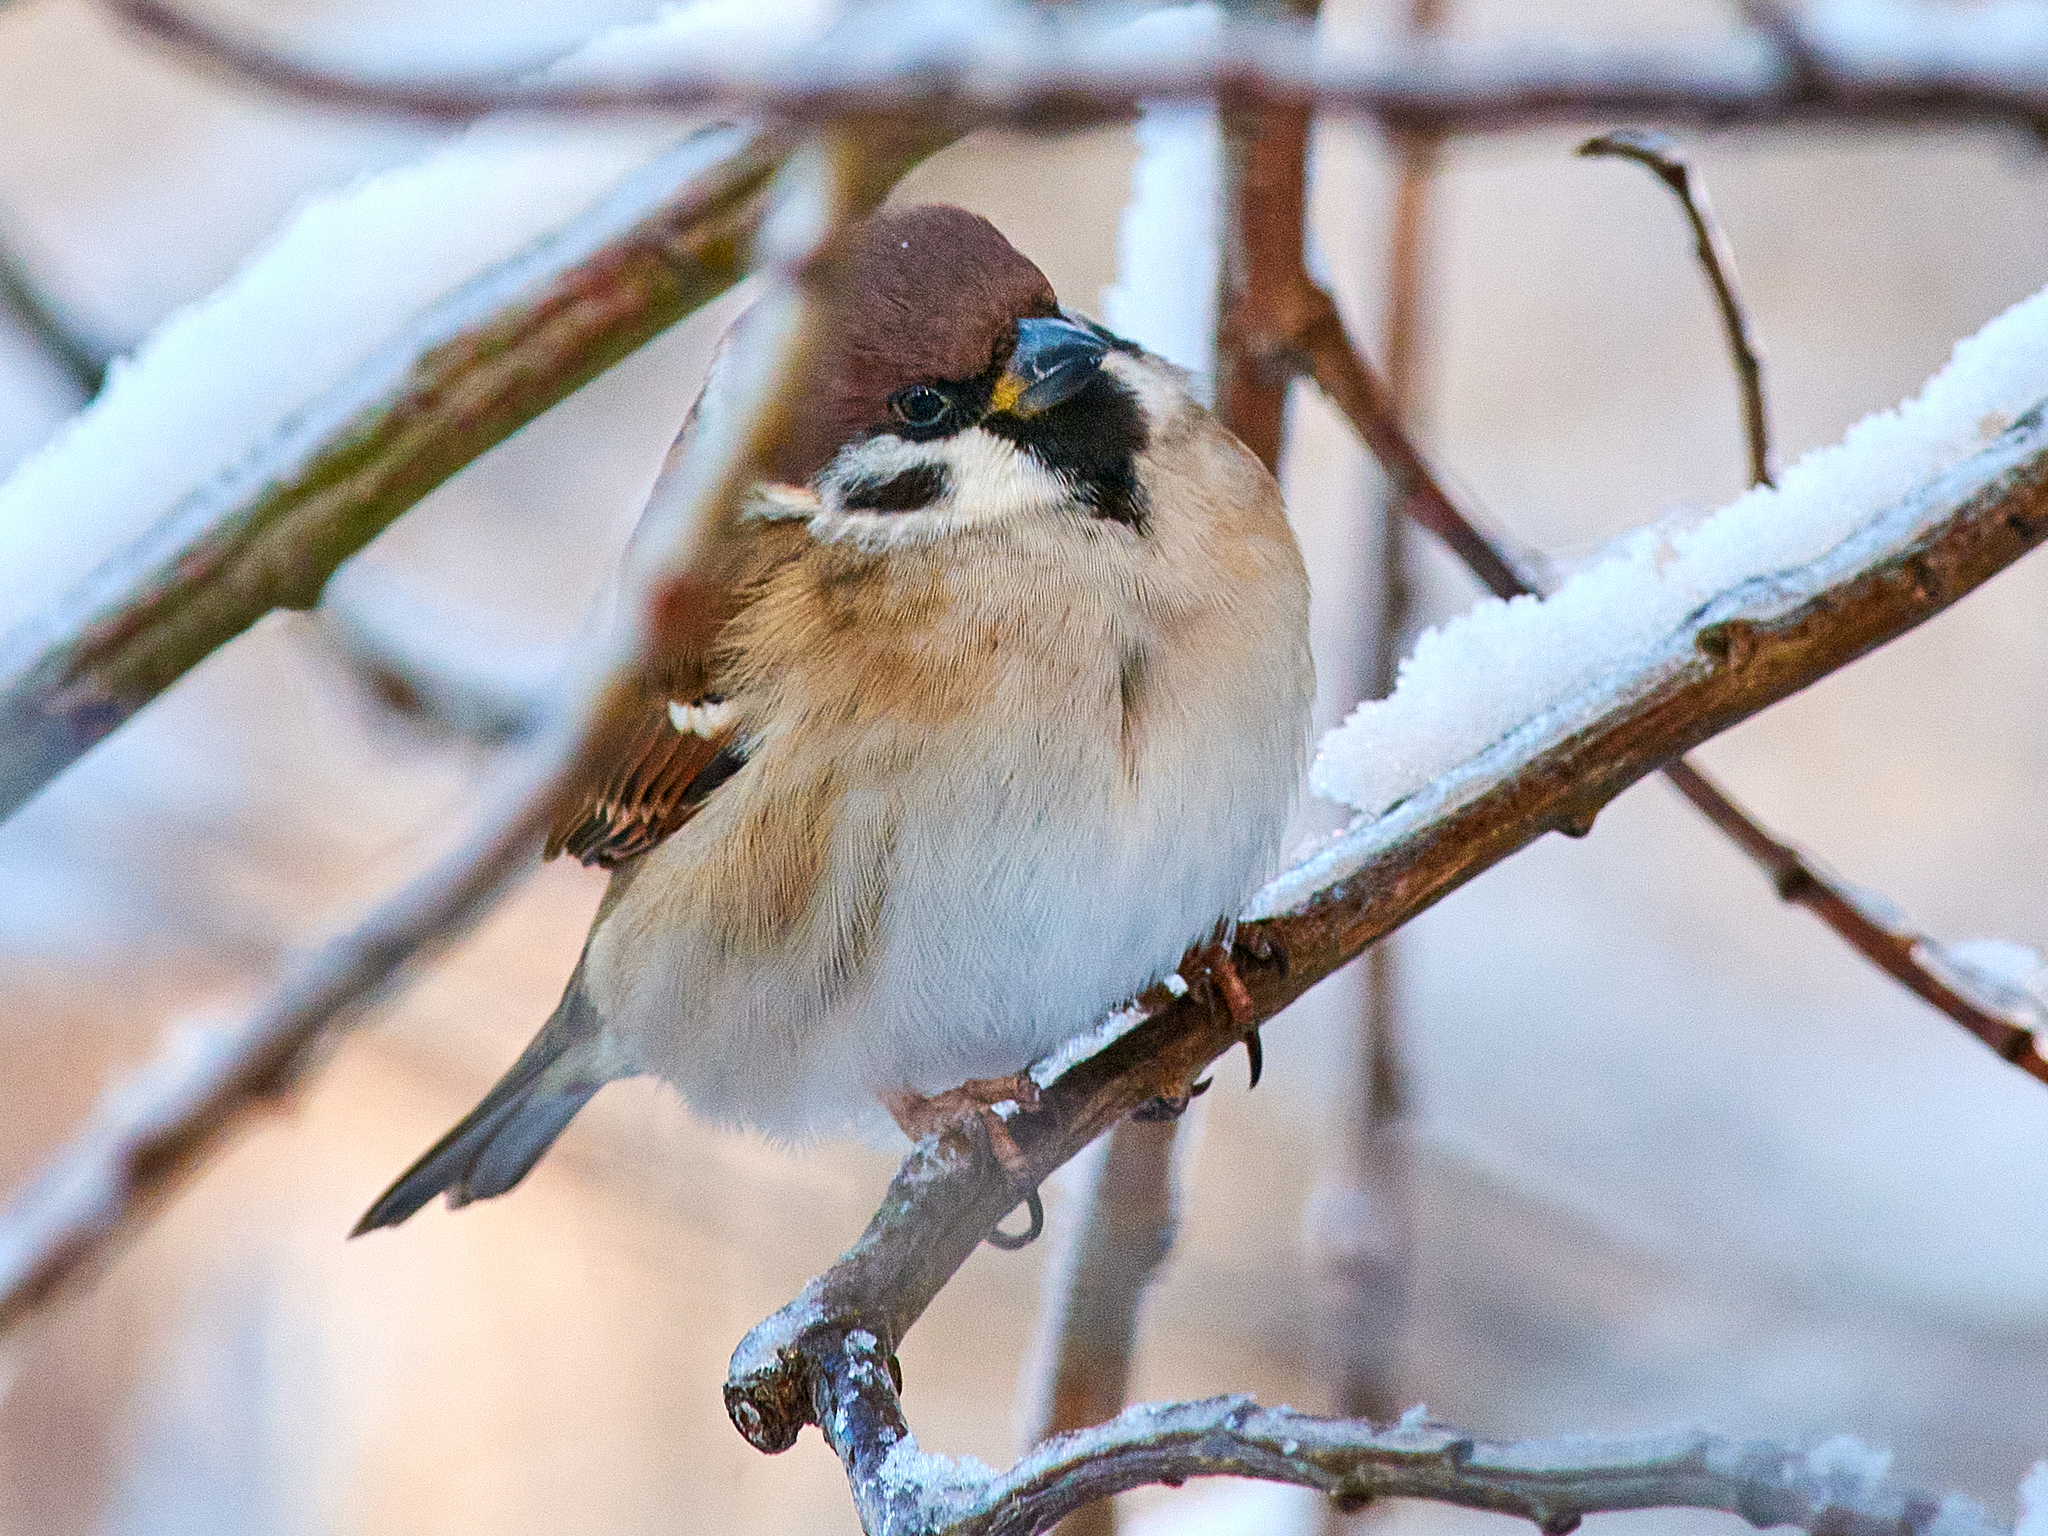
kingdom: Animalia
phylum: Chordata
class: Aves
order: Passeriformes
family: Passeridae
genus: Passer
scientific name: Passer montanus
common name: Eurasian tree sparrow
